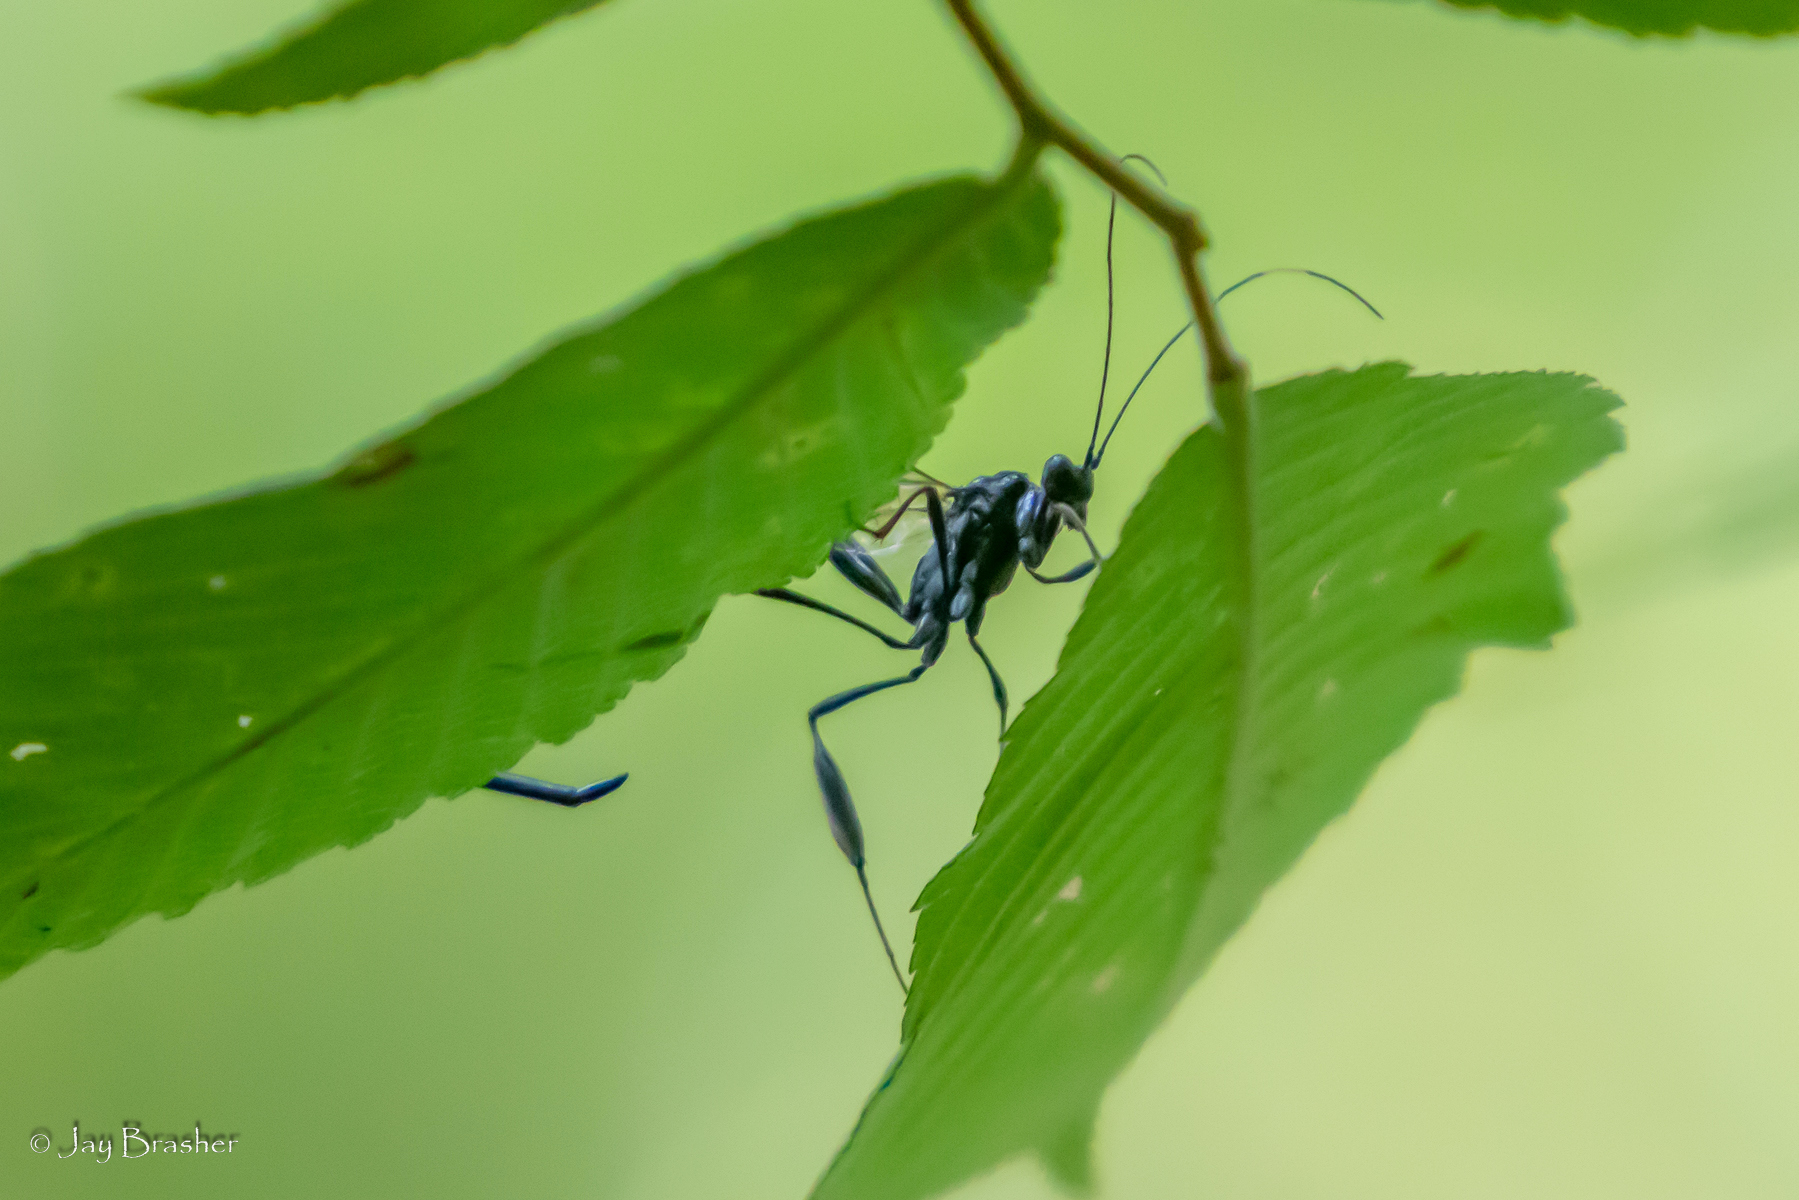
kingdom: Animalia
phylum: Arthropoda
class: Insecta
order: Hymenoptera
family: Pelecinidae
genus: Pelecinus
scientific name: Pelecinus polyturator
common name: American pelecinid wasp
